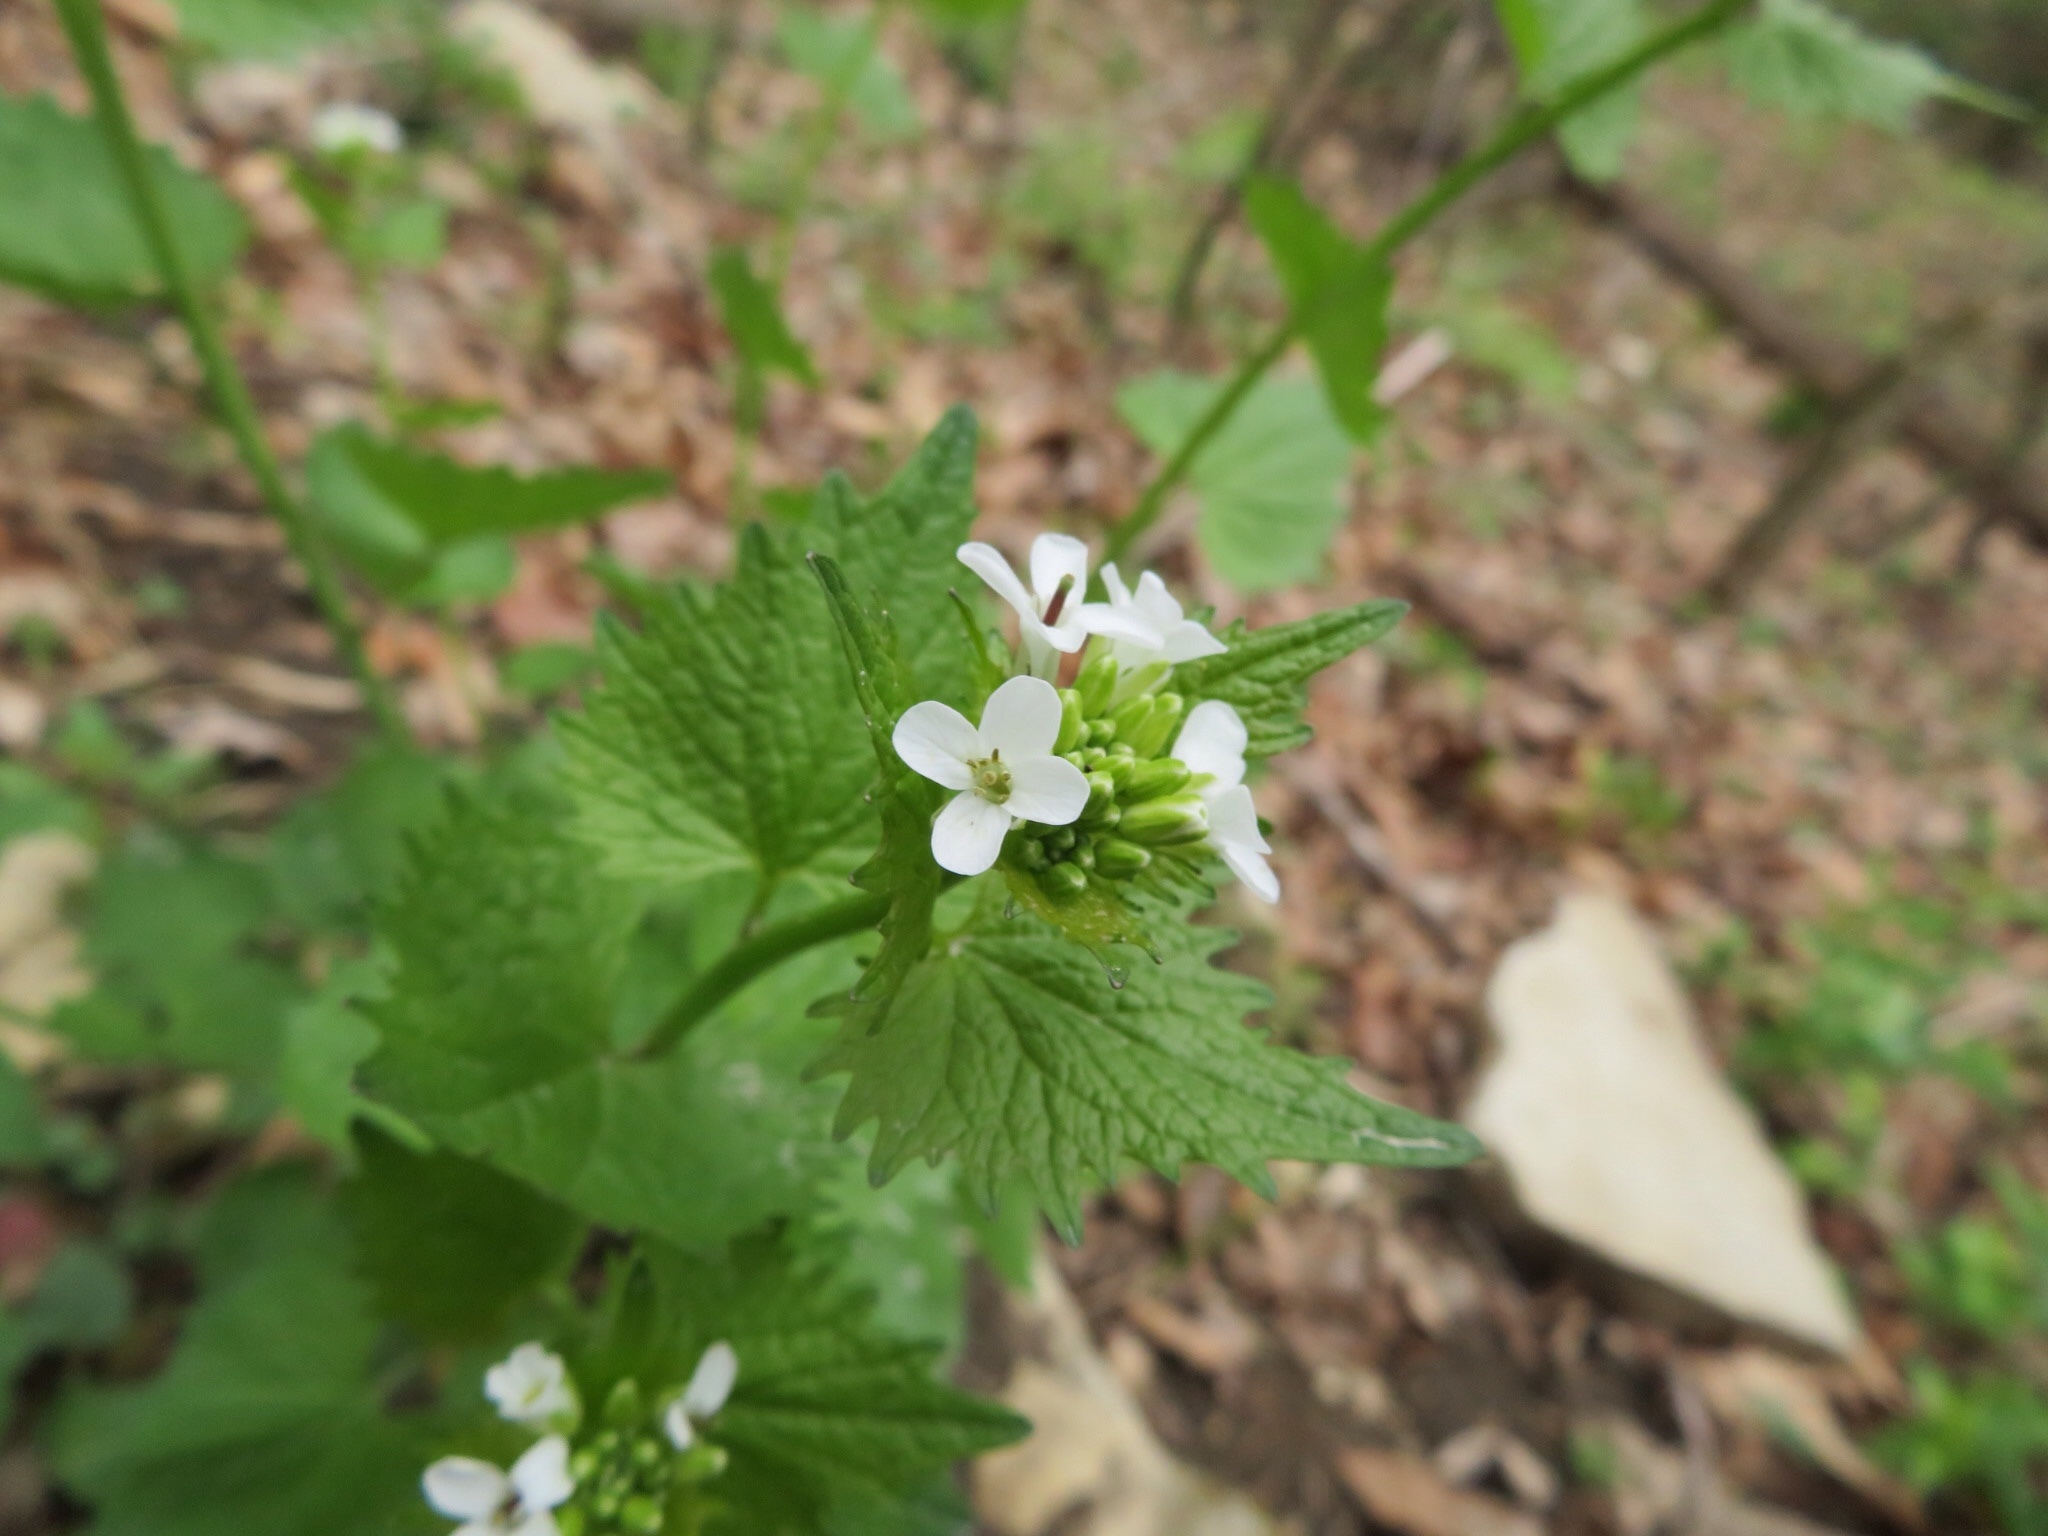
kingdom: Plantae
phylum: Tracheophyta
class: Magnoliopsida
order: Brassicales
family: Brassicaceae
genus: Alliaria
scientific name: Alliaria petiolata
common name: Garlic mustard
